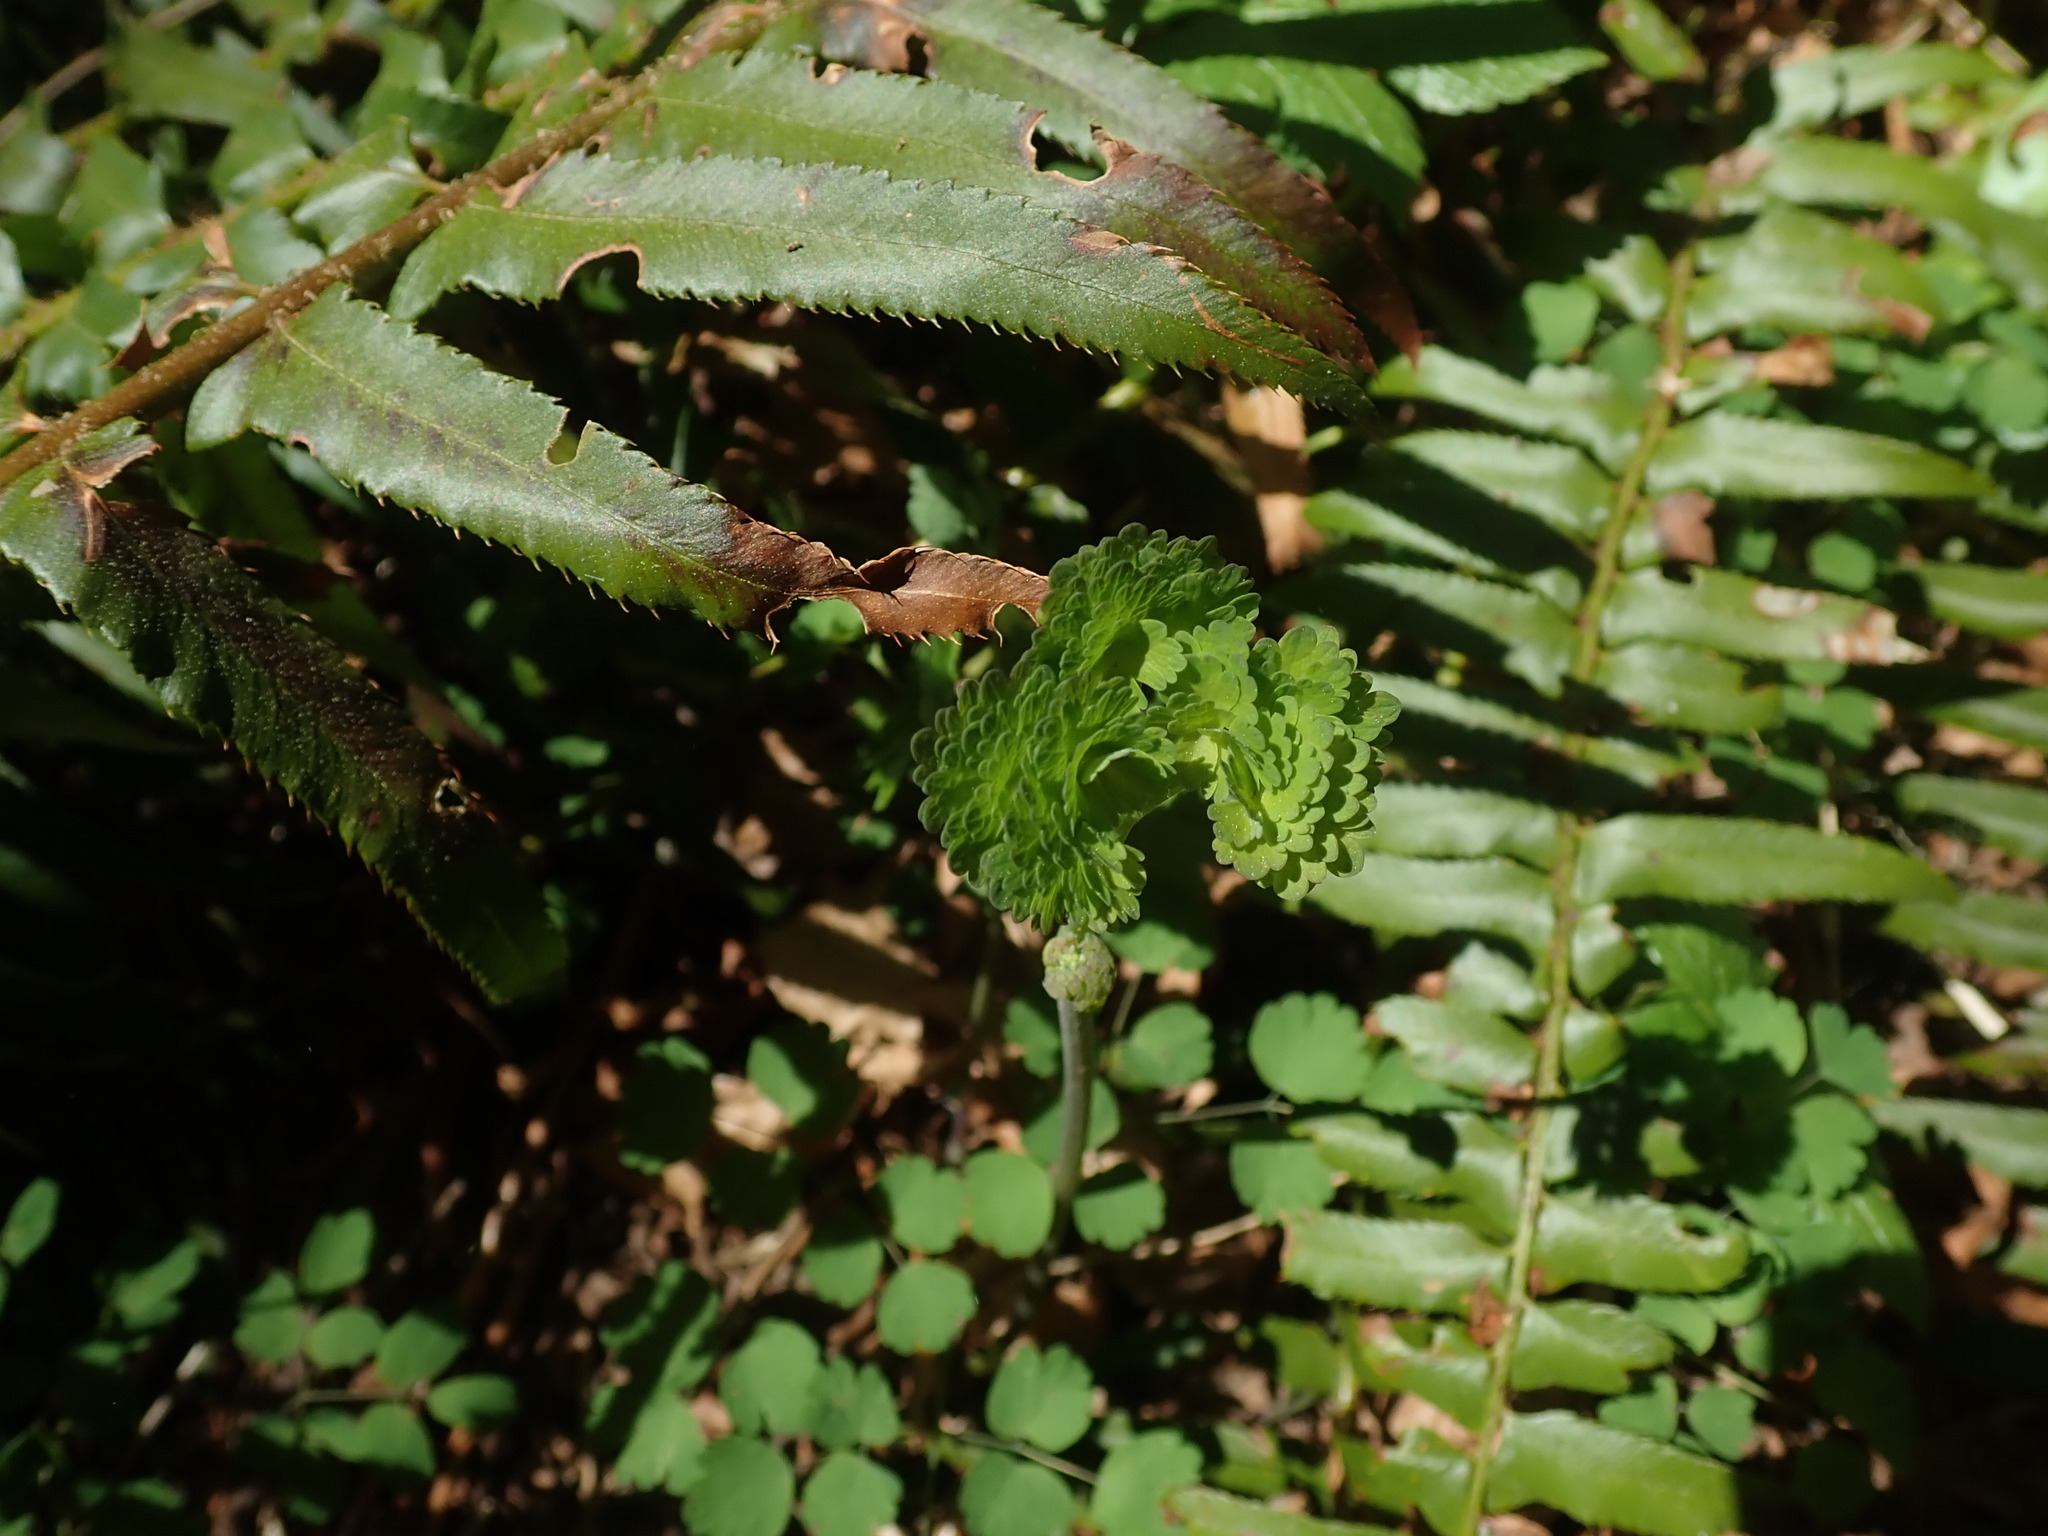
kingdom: Plantae
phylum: Tracheophyta
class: Magnoliopsida
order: Ranunculales
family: Ranunculaceae
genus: Thalictrum
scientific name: Thalictrum occidentale
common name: Western meadow-rue
